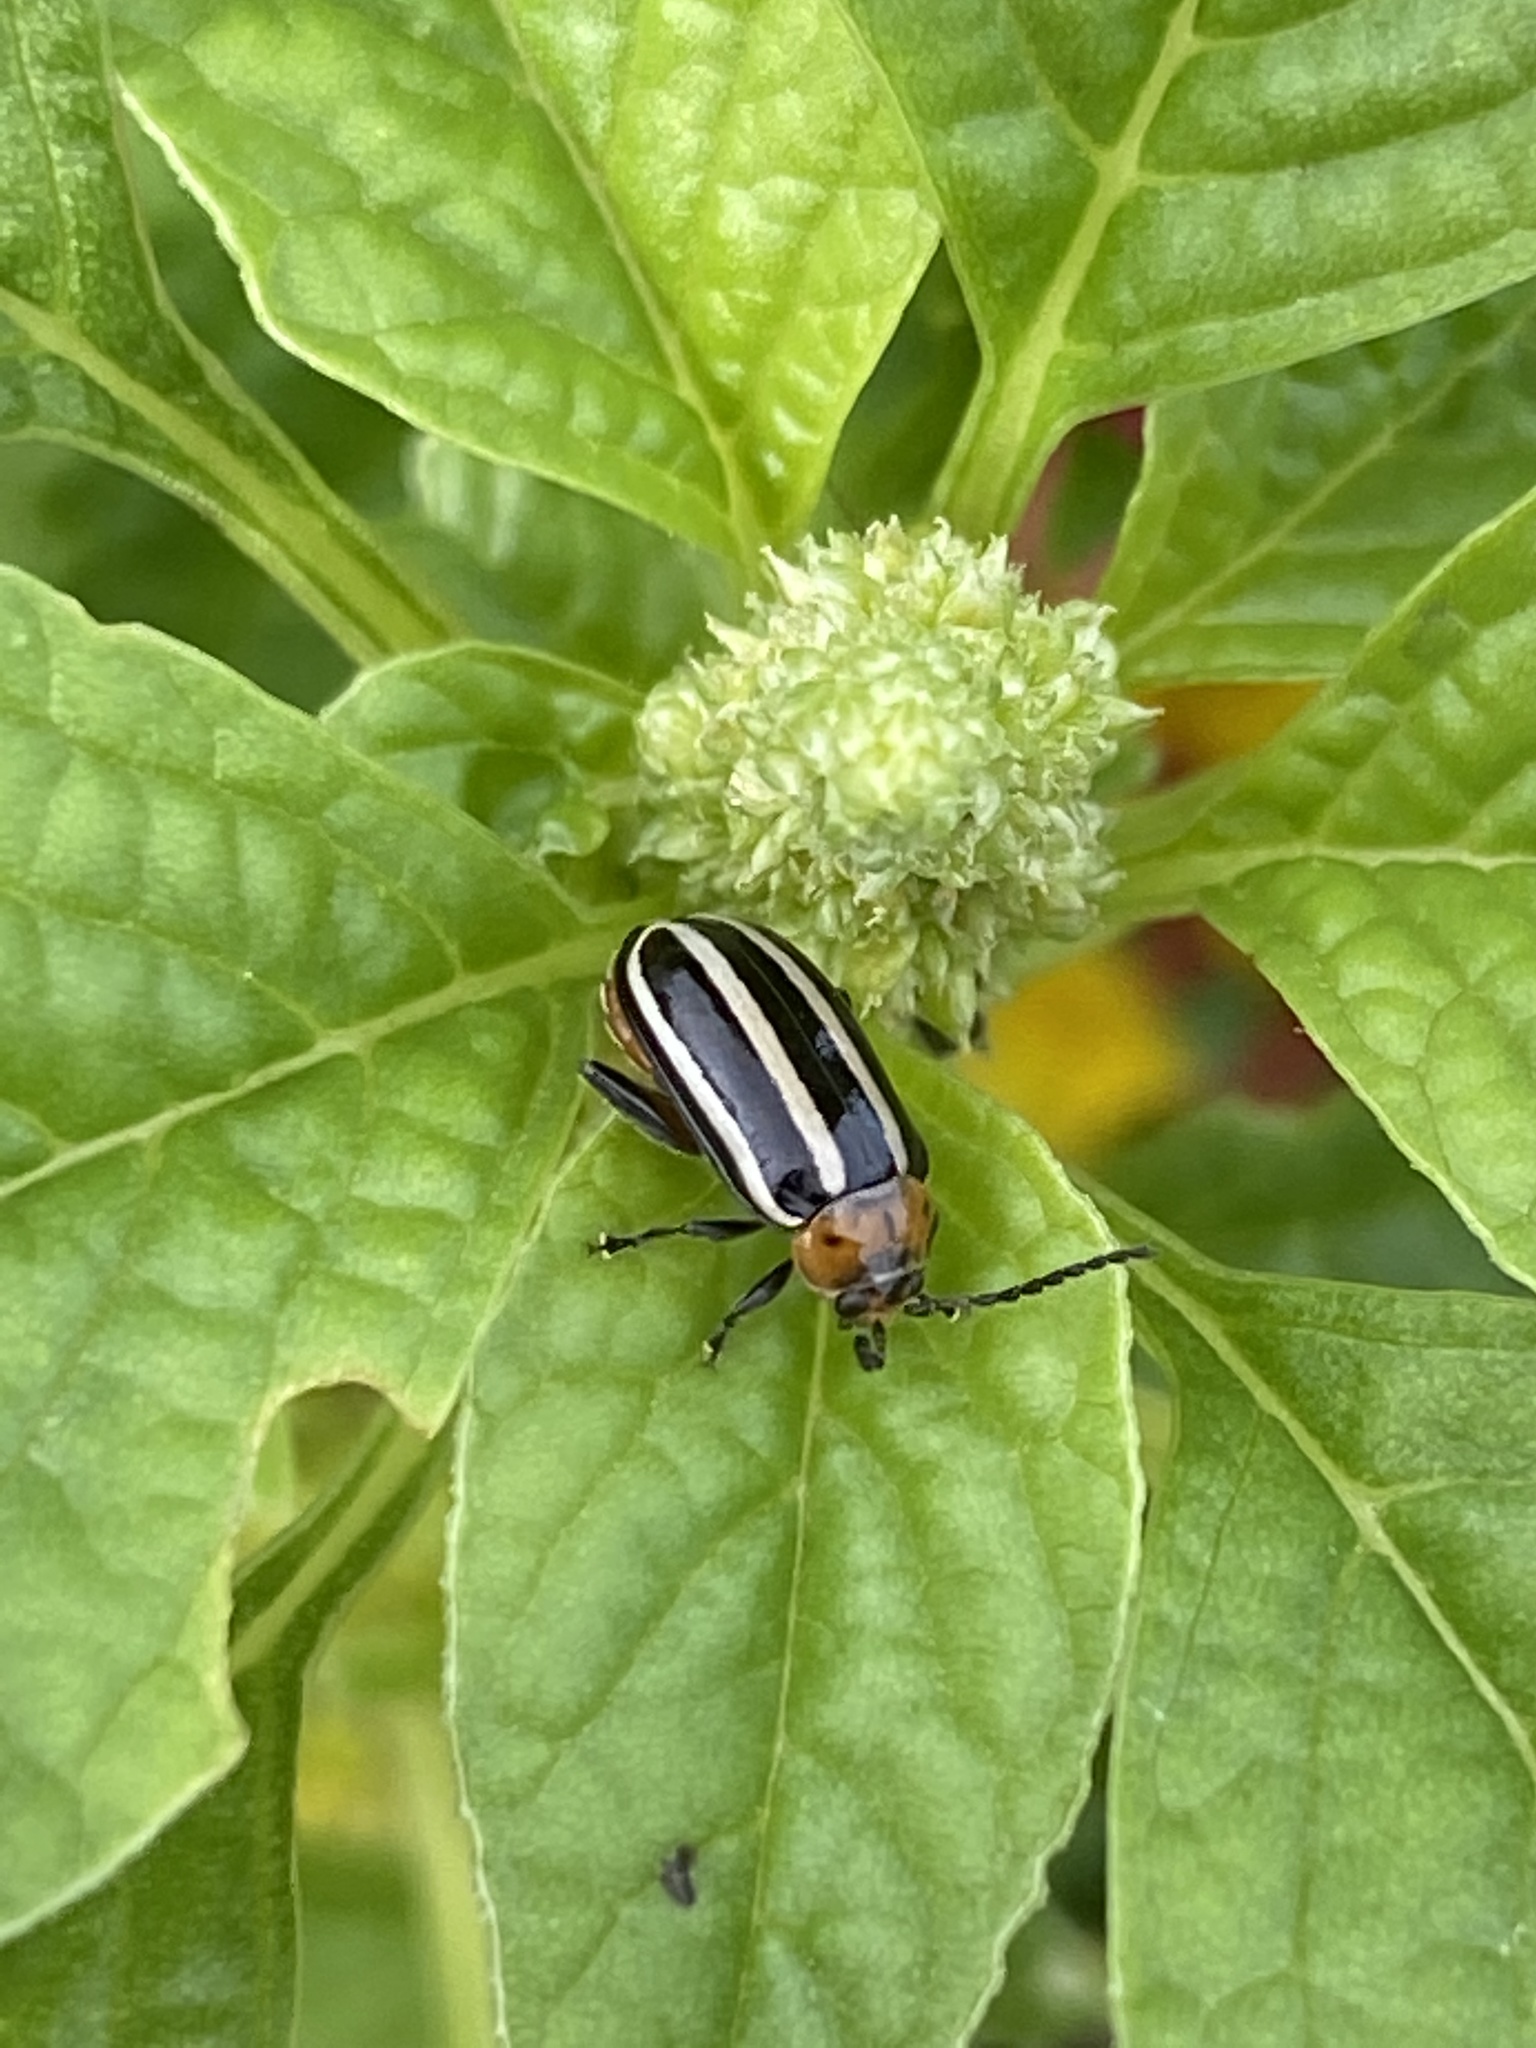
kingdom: Animalia
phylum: Arthropoda
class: Insecta
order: Coleoptera
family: Chrysomelidae
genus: Disonycha
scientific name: Disonycha glabrata
